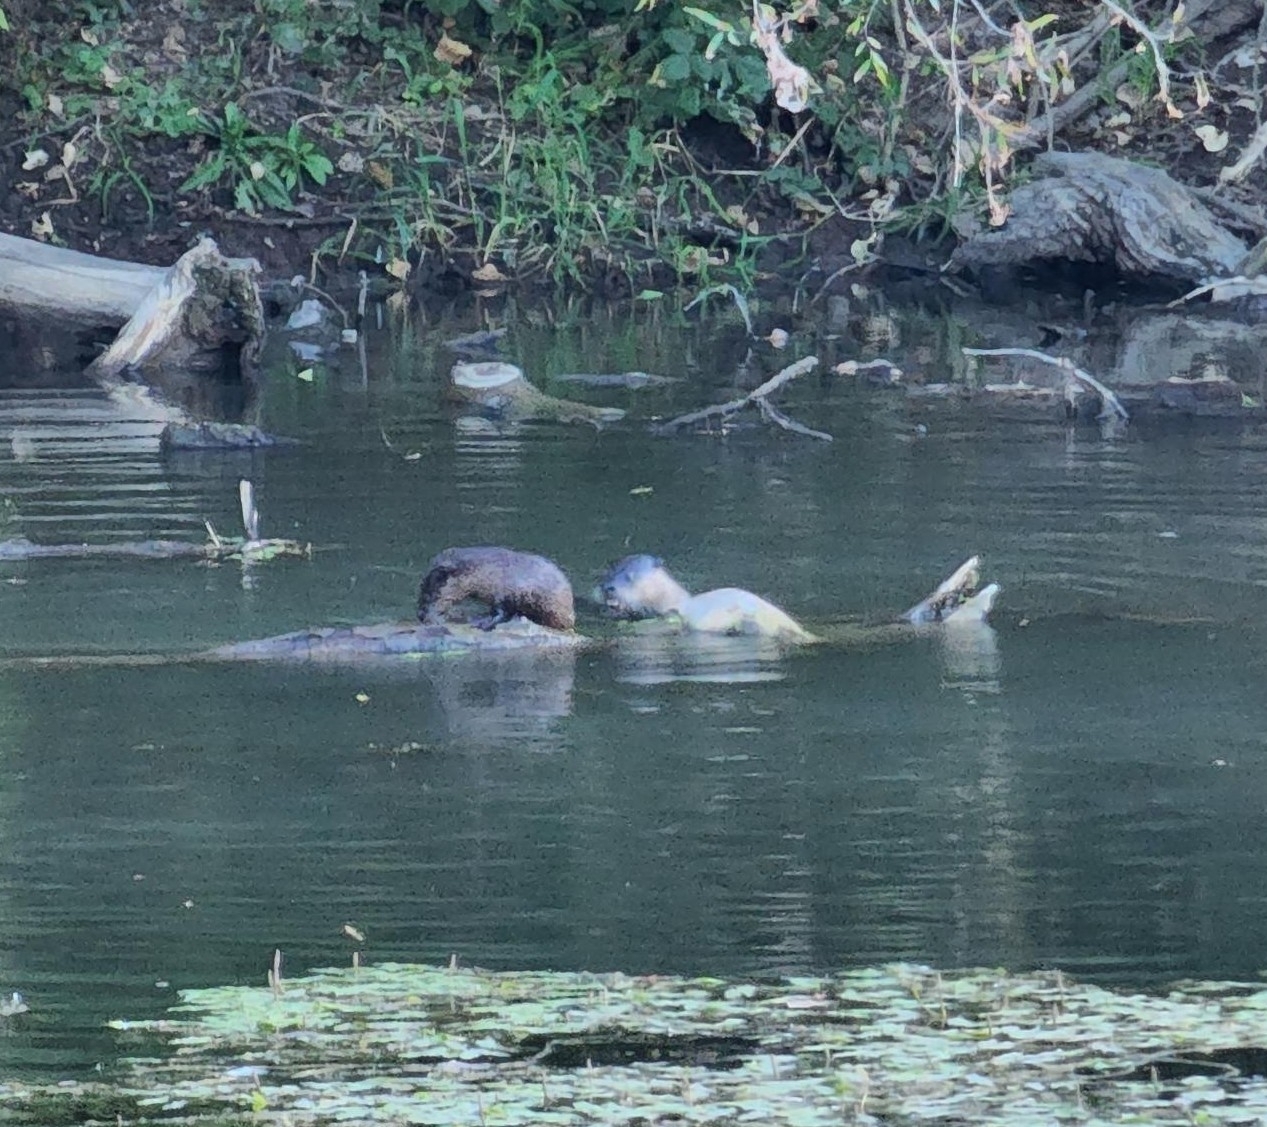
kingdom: Animalia
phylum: Chordata
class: Mammalia
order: Carnivora
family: Mustelidae
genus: Lontra
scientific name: Lontra canadensis
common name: North american river otter
